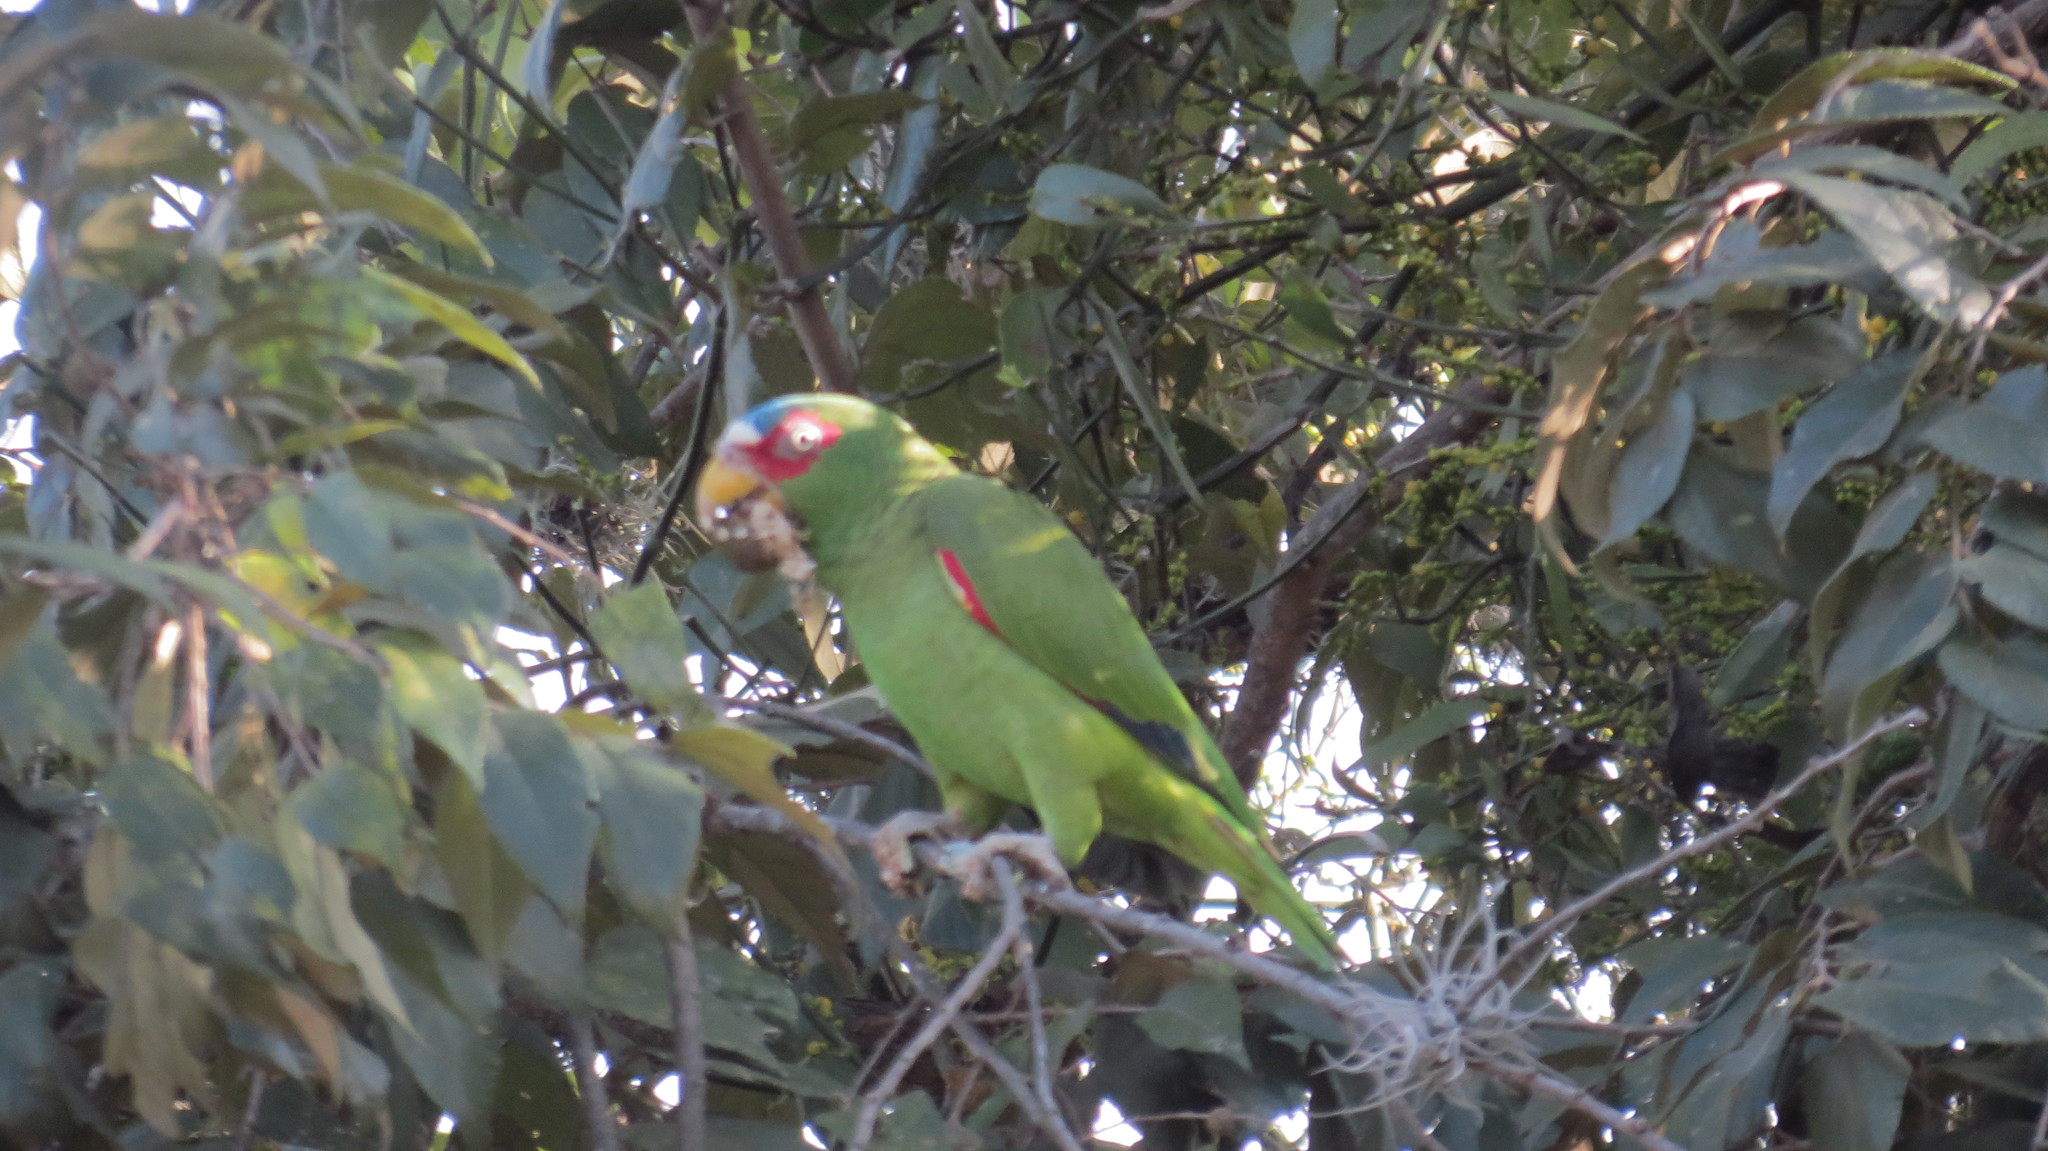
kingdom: Animalia
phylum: Chordata
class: Aves
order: Psittaciformes
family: Psittacidae
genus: Amazona
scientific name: Amazona albifrons
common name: White-fronted amazon
